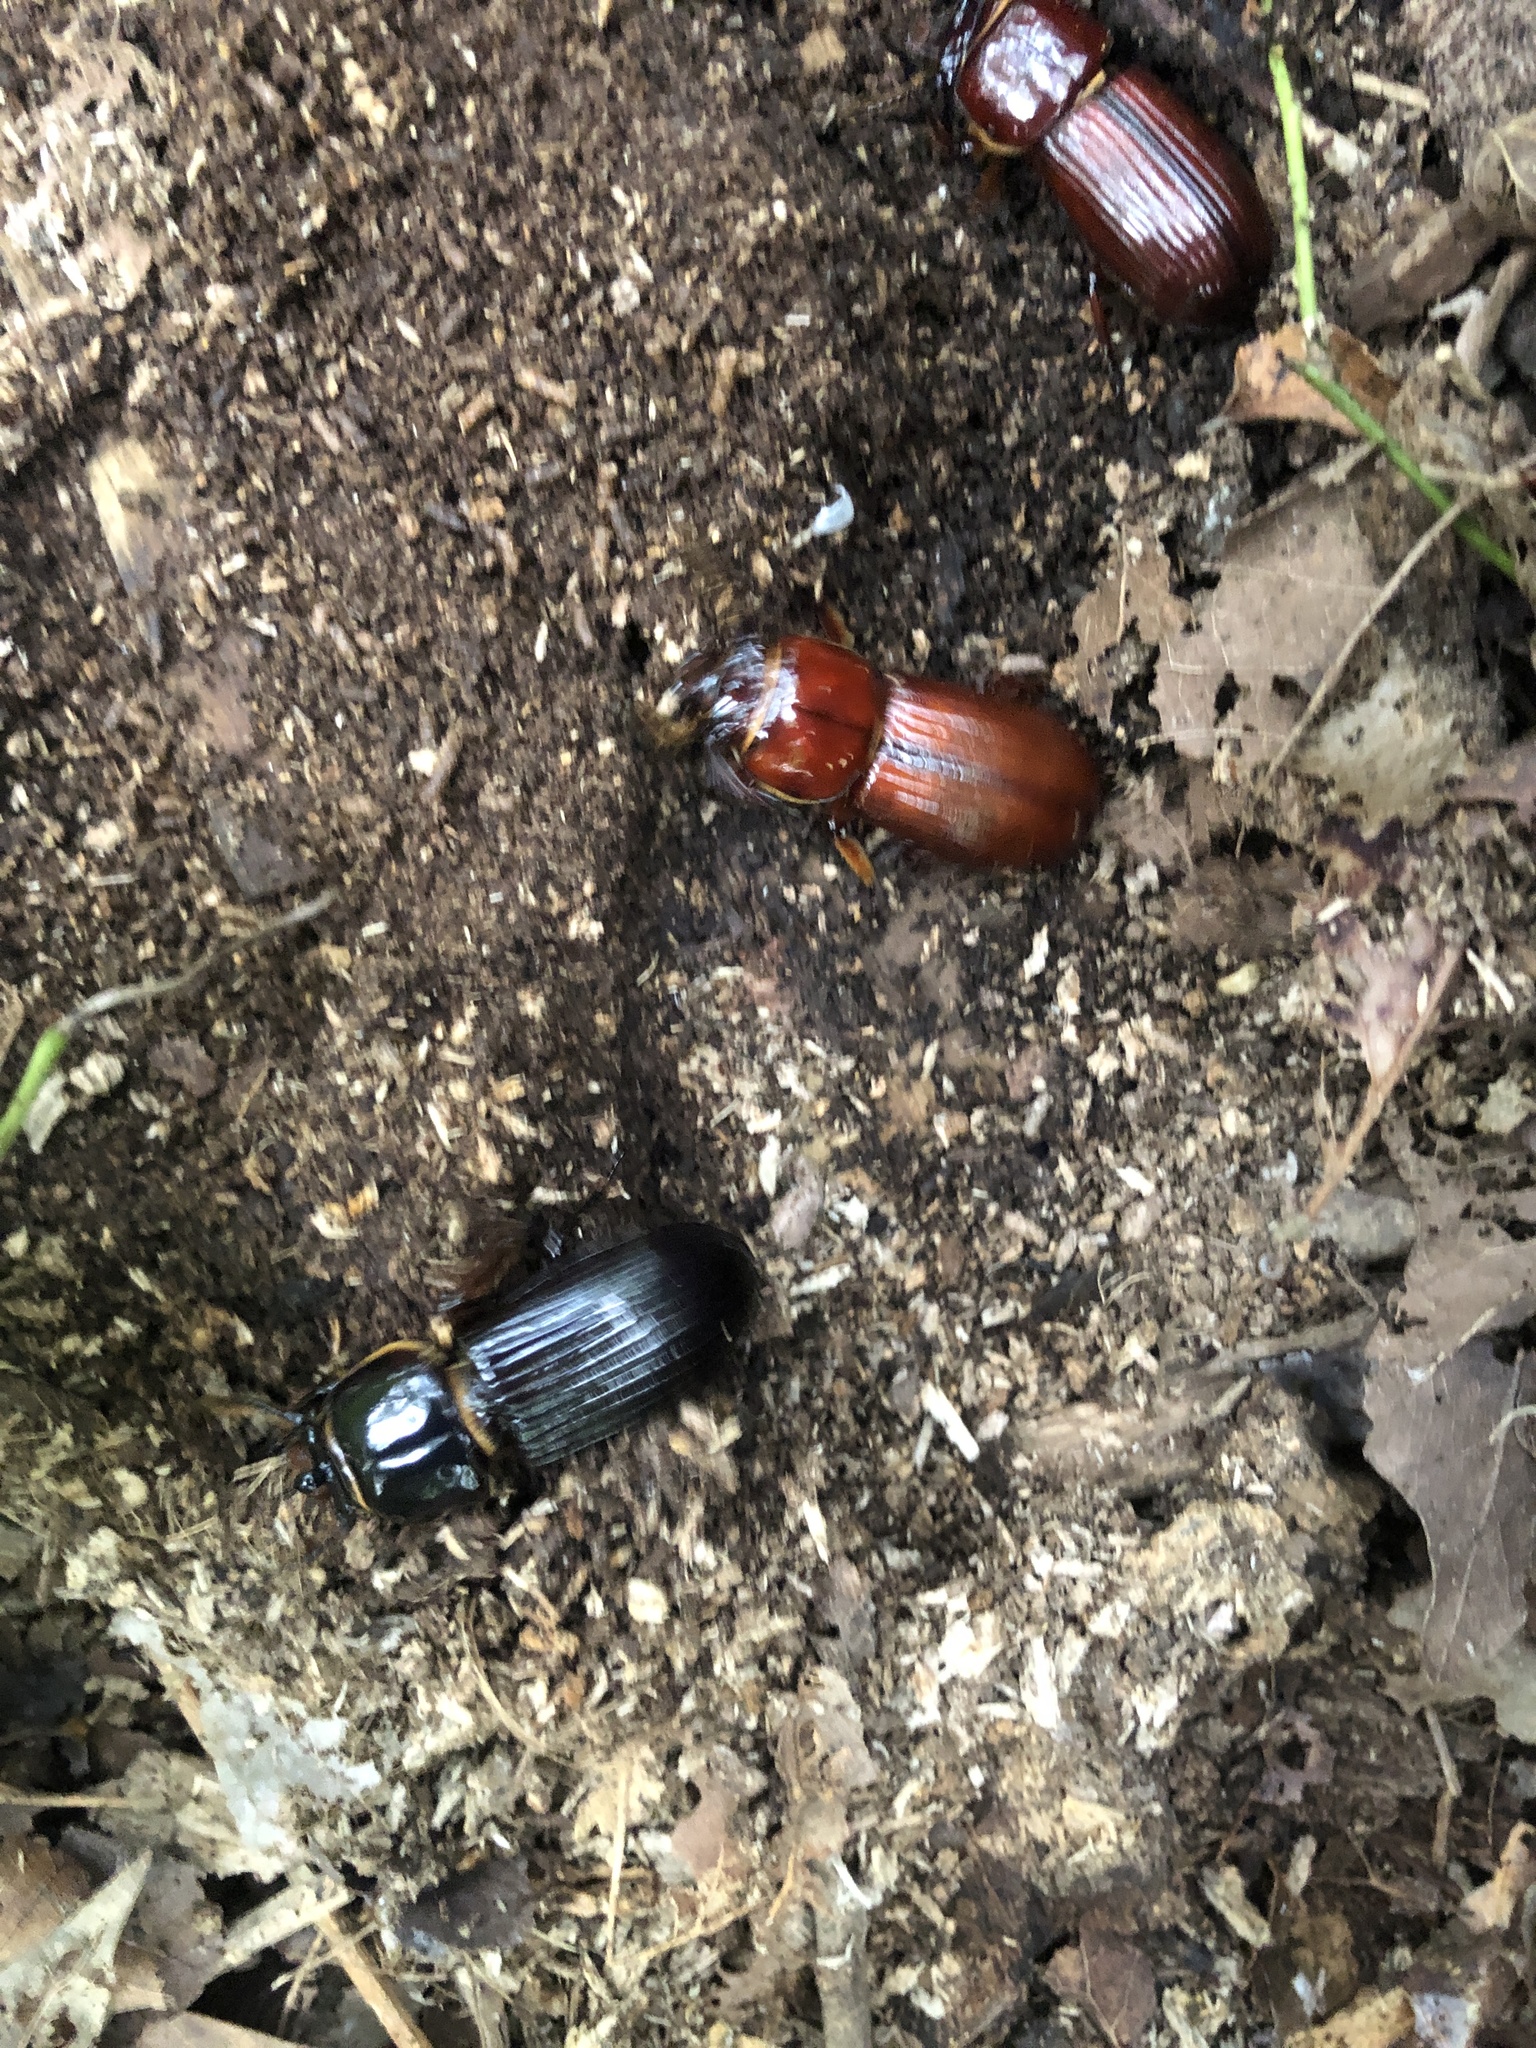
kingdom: Animalia
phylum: Arthropoda
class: Insecta
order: Coleoptera
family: Passalidae
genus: Odontotaenius
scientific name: Odontotaenius disjunctus
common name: Patent leather beetle
